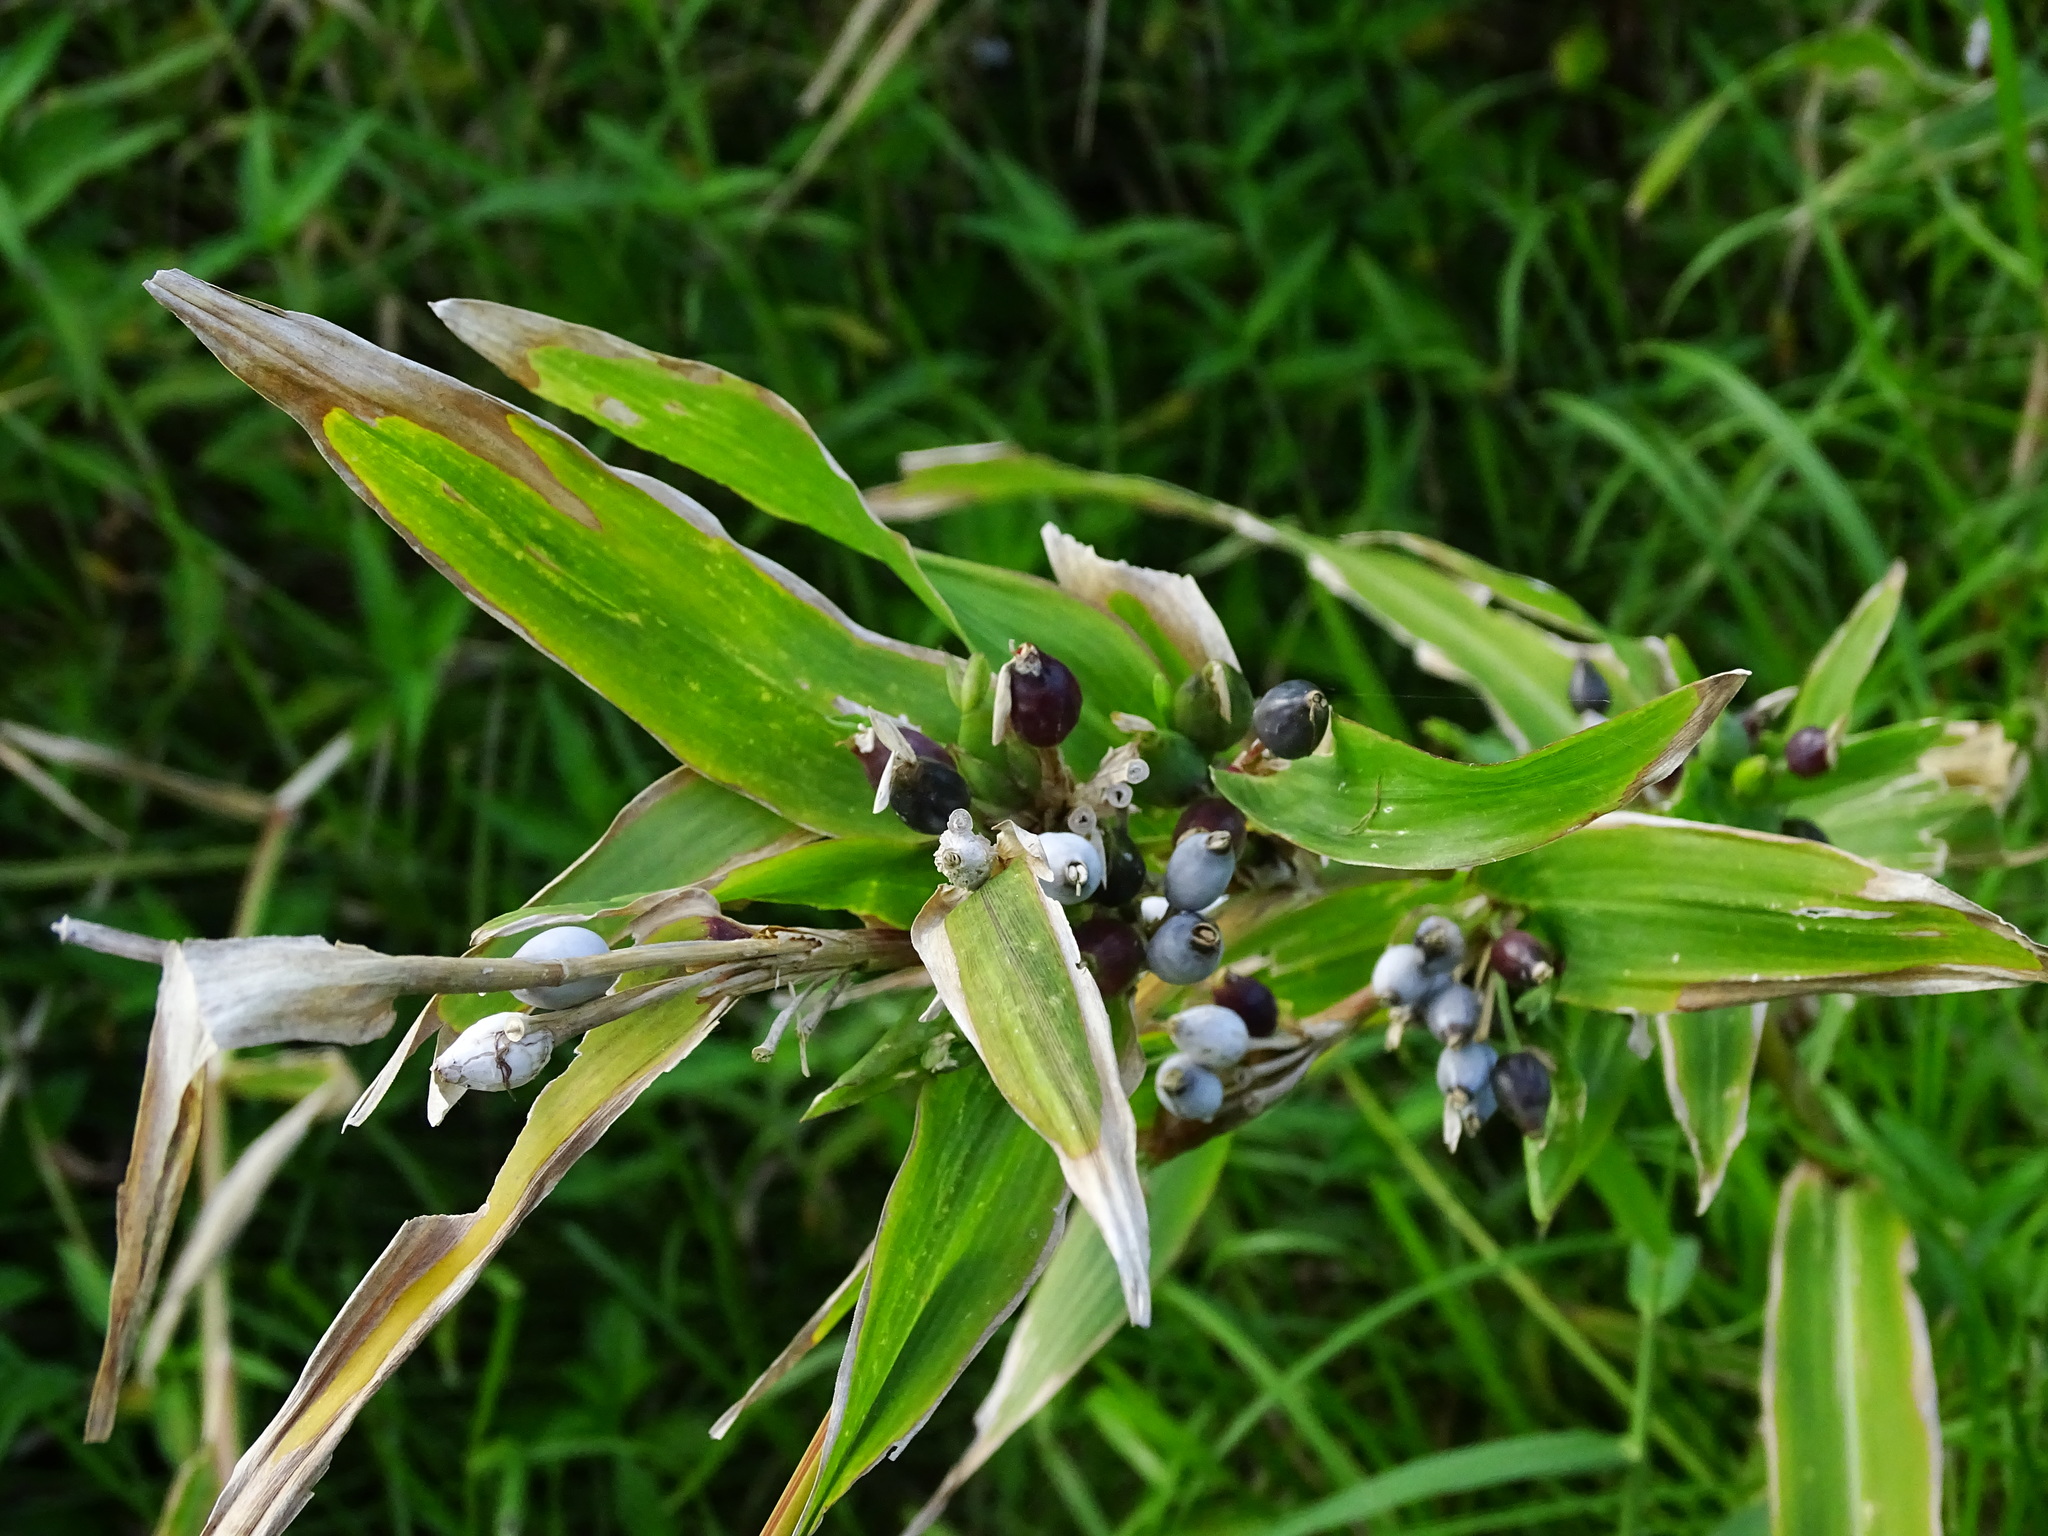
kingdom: Plantae
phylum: Tracheophyta
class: Liliopsida
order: Poales
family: Poaceae
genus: Coix
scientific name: Coix lacryma-jobi
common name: Job's tears
